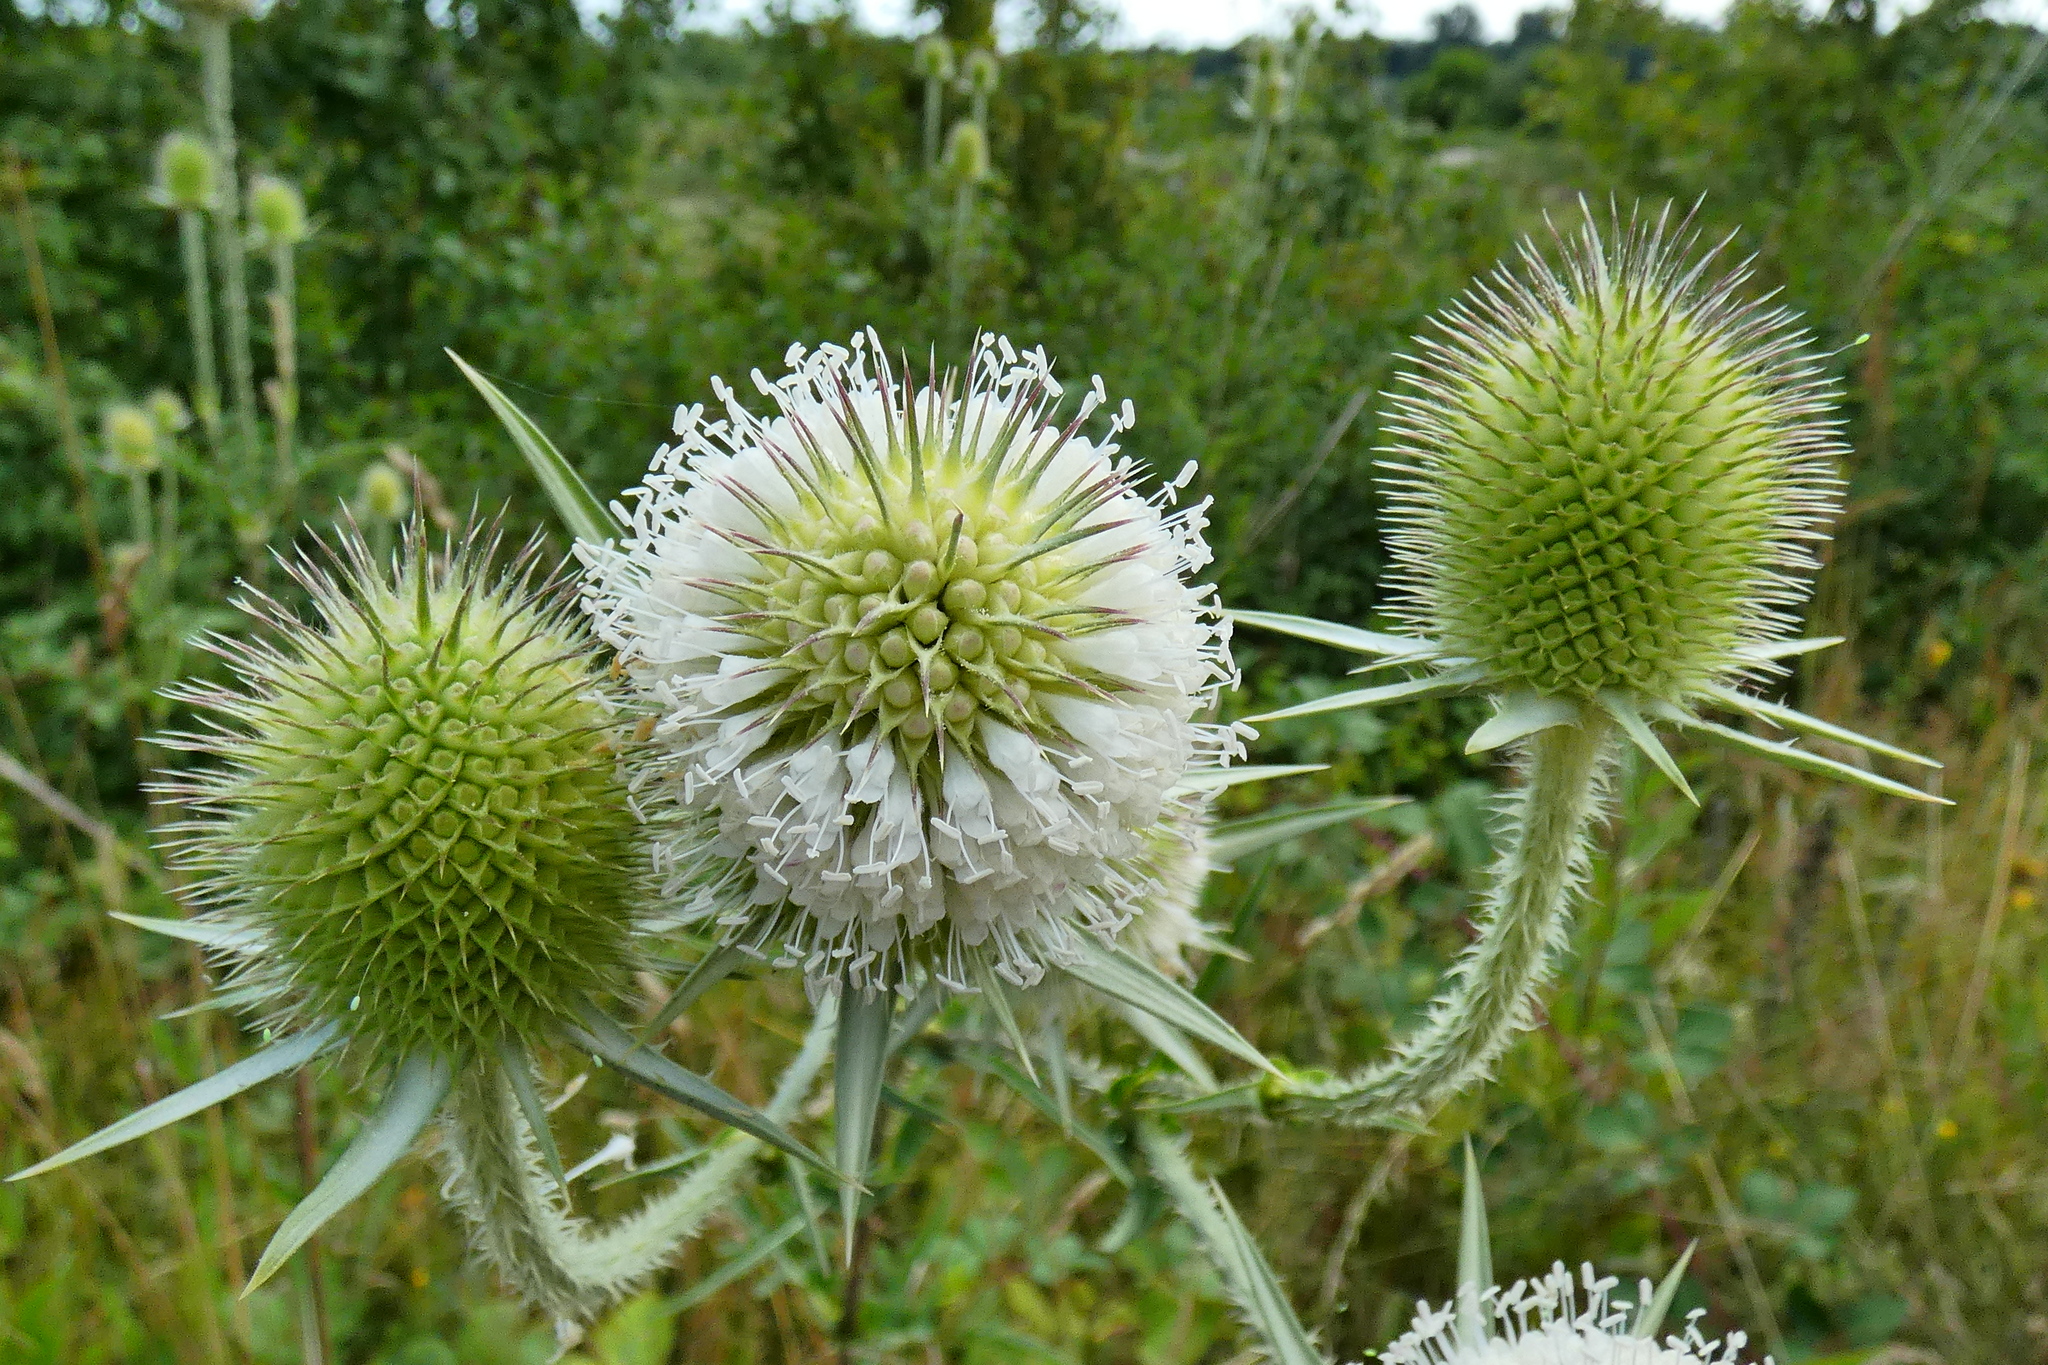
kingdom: Plantae
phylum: Tracheophyta
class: Magnoliopsida
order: Dipsacales
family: Caprifoliaceae
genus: Dipsacus
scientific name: Dipsacus laciniatus
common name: Cut-leaved teasel
